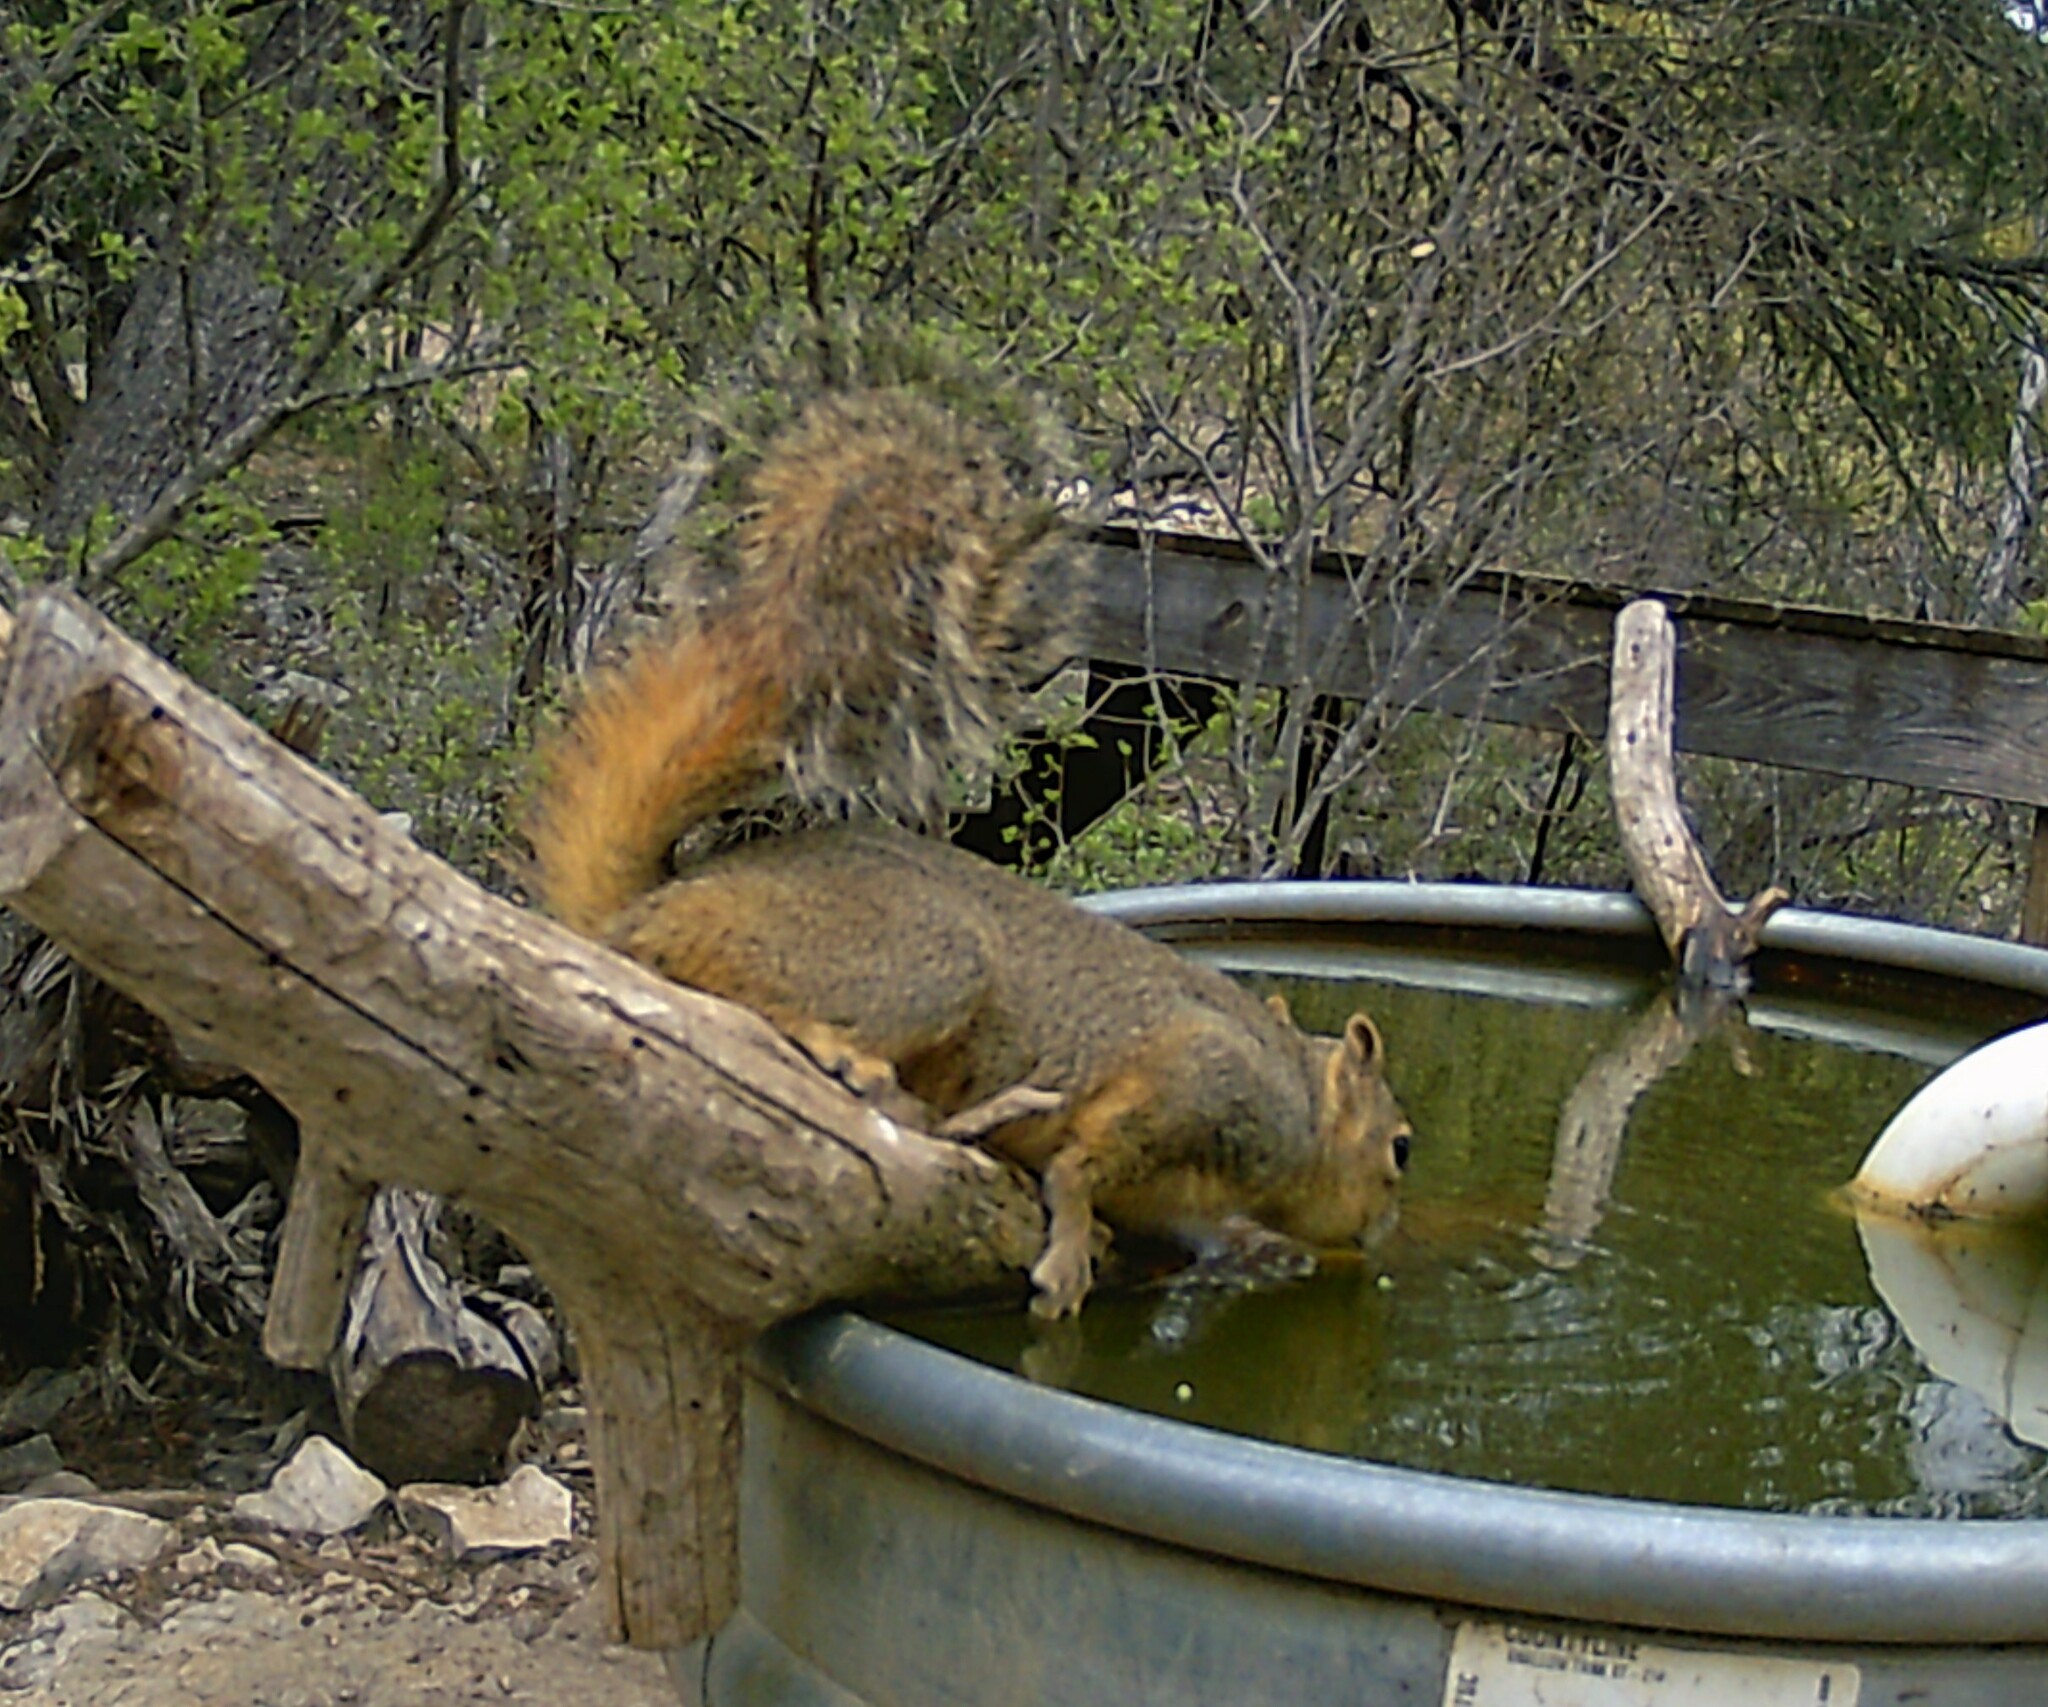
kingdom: Animalia
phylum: Chordata
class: Mammalia
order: Rodentia
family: Sciuridae
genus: Sciurus
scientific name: Sciurus niger
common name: Fox squirrel
